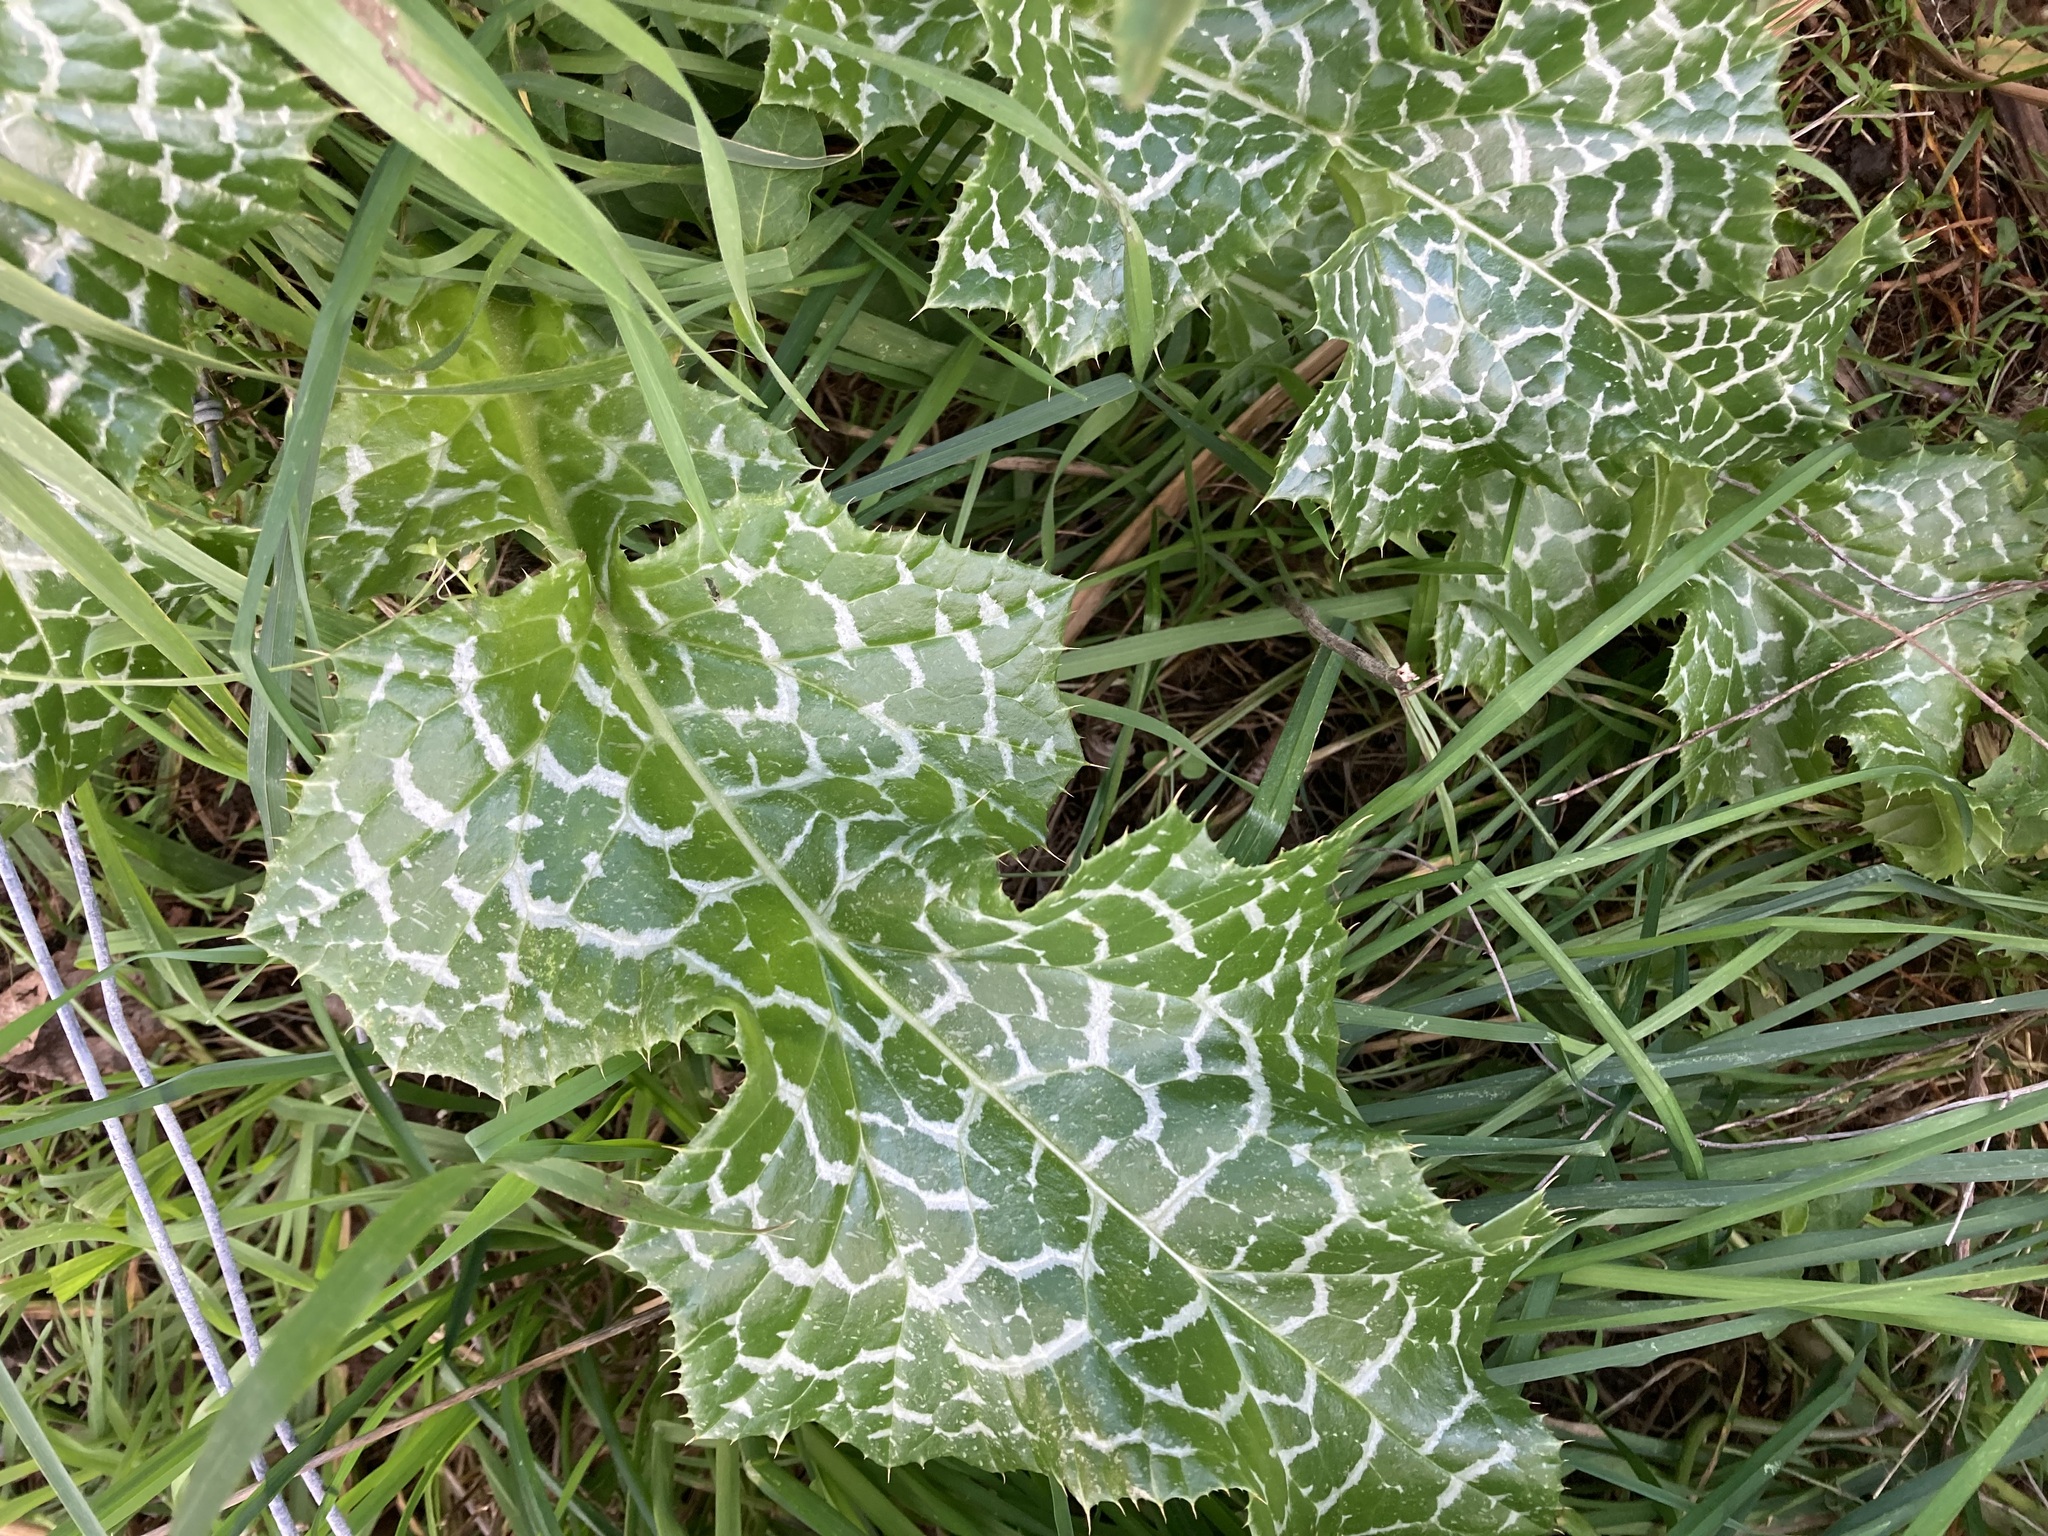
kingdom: Plantae
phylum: Tracheophyta
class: Magnoliopsida
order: Asterales
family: Asteraceae
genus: Silybum
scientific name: Silybum marianum
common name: Milk thistle
